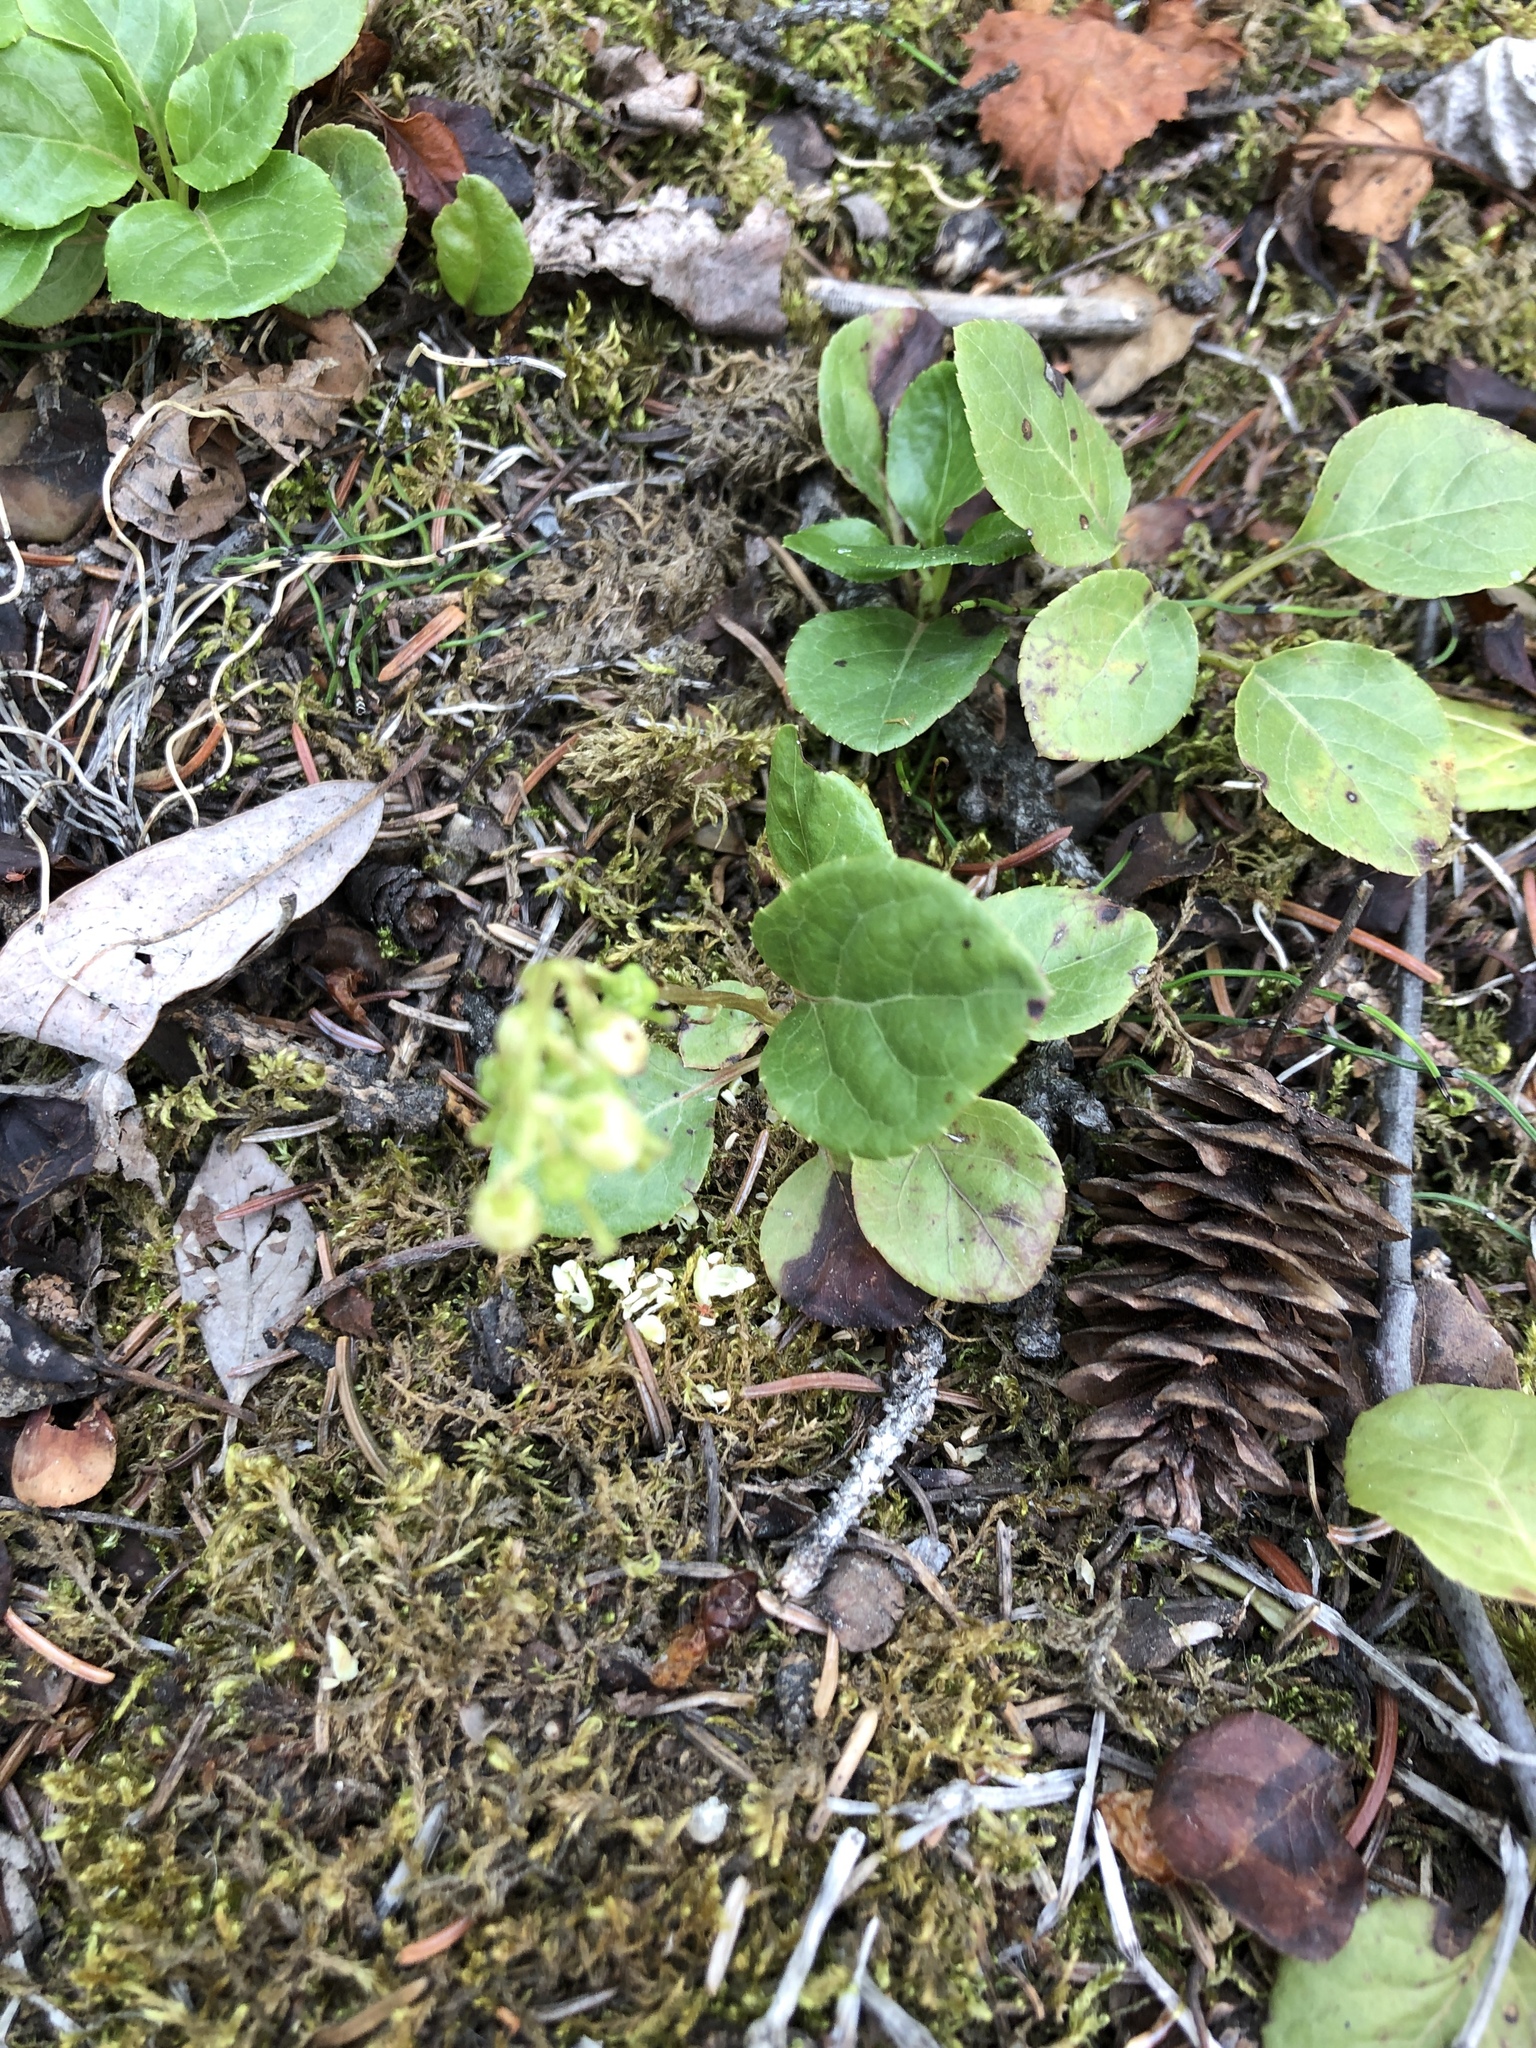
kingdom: Plantae
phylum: Tracheophyta
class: Magnoliopsida
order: Ericales
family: Ericaceae
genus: Orthilia
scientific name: Orthilia secunda
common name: One-sided orthilia
